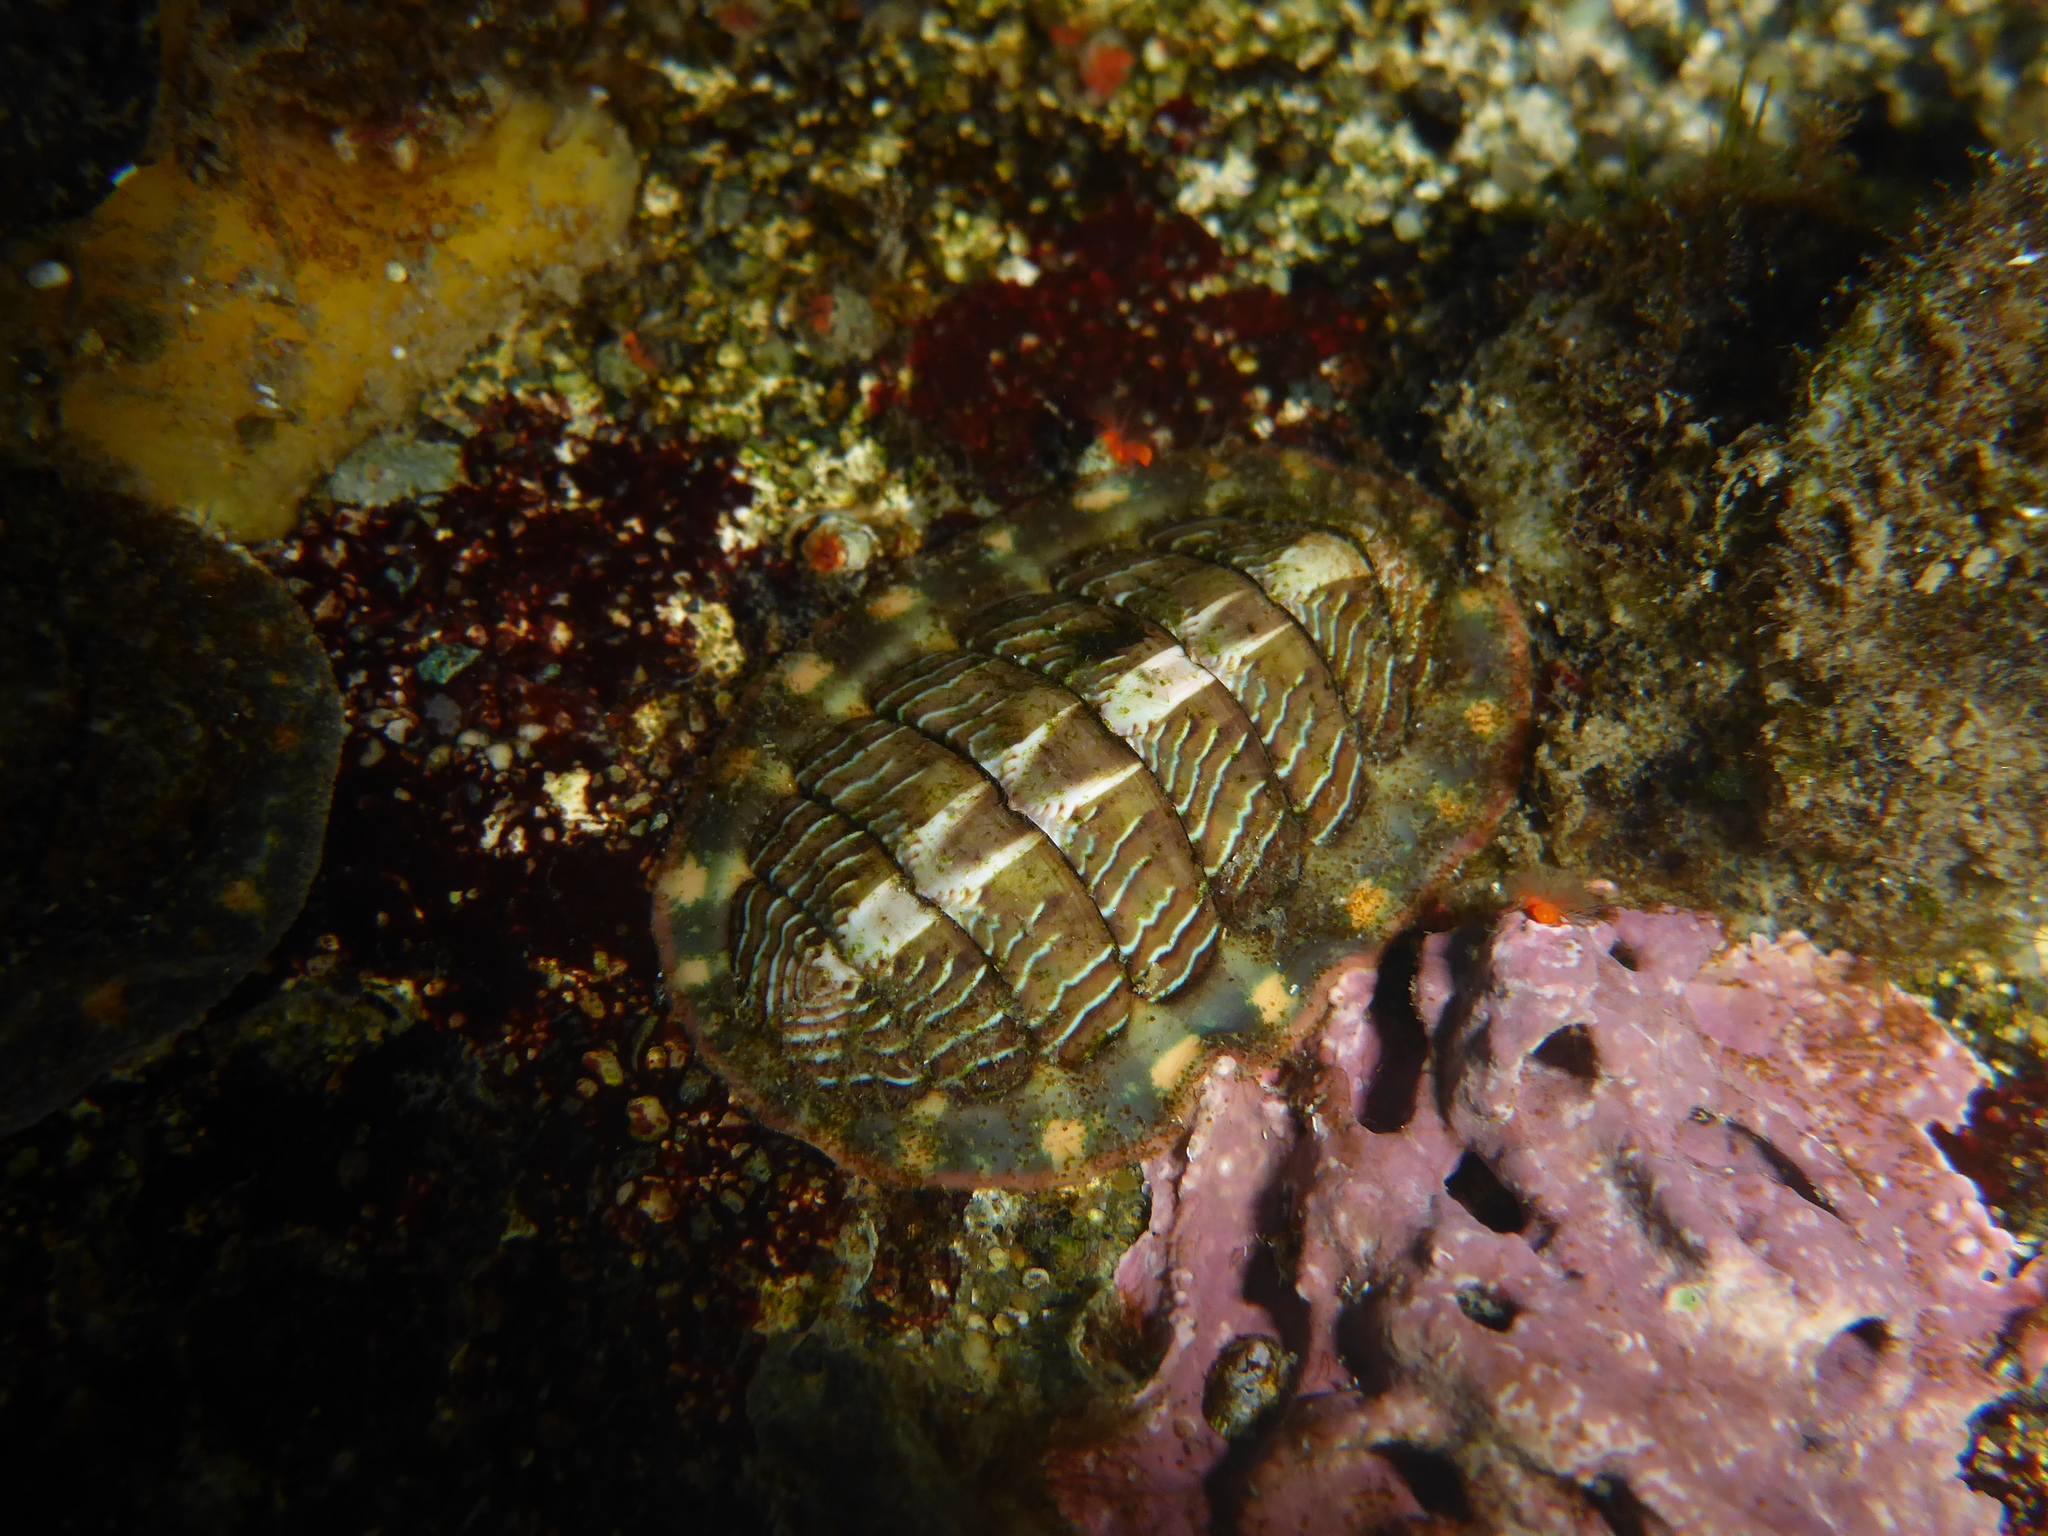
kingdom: Animalia
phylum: Mollusca
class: Polyplacophora
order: Chitonida
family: Tonicellidae
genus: Tonicella
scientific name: Tonicella lineata
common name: Lined chiton
